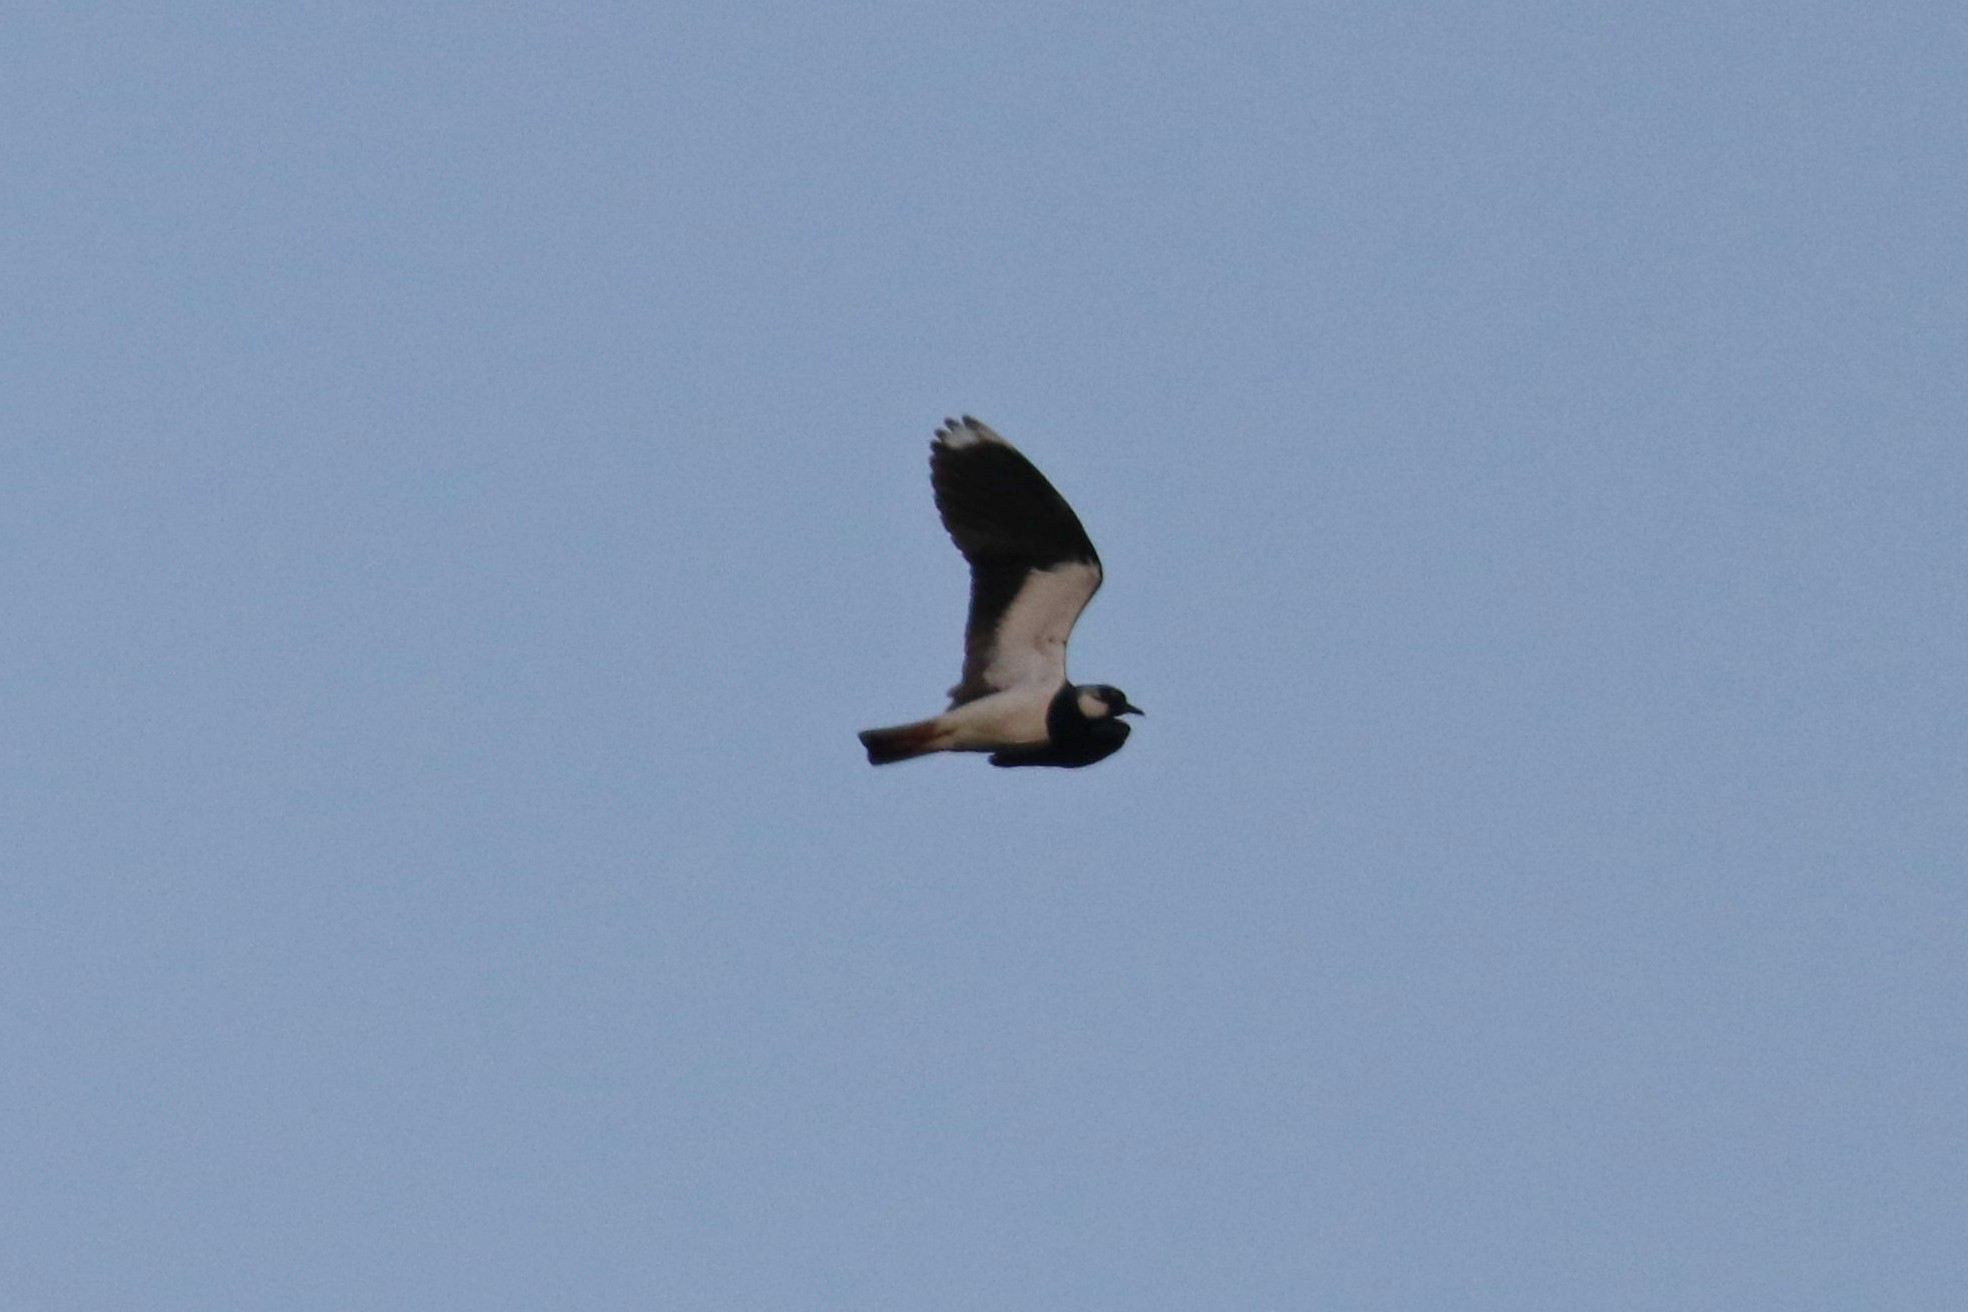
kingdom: Animalia
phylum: Chordata
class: Aves
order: Charadriiformes
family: Charadriidae
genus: Vanellus
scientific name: Vanellus vanellus
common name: Northern lapwing
